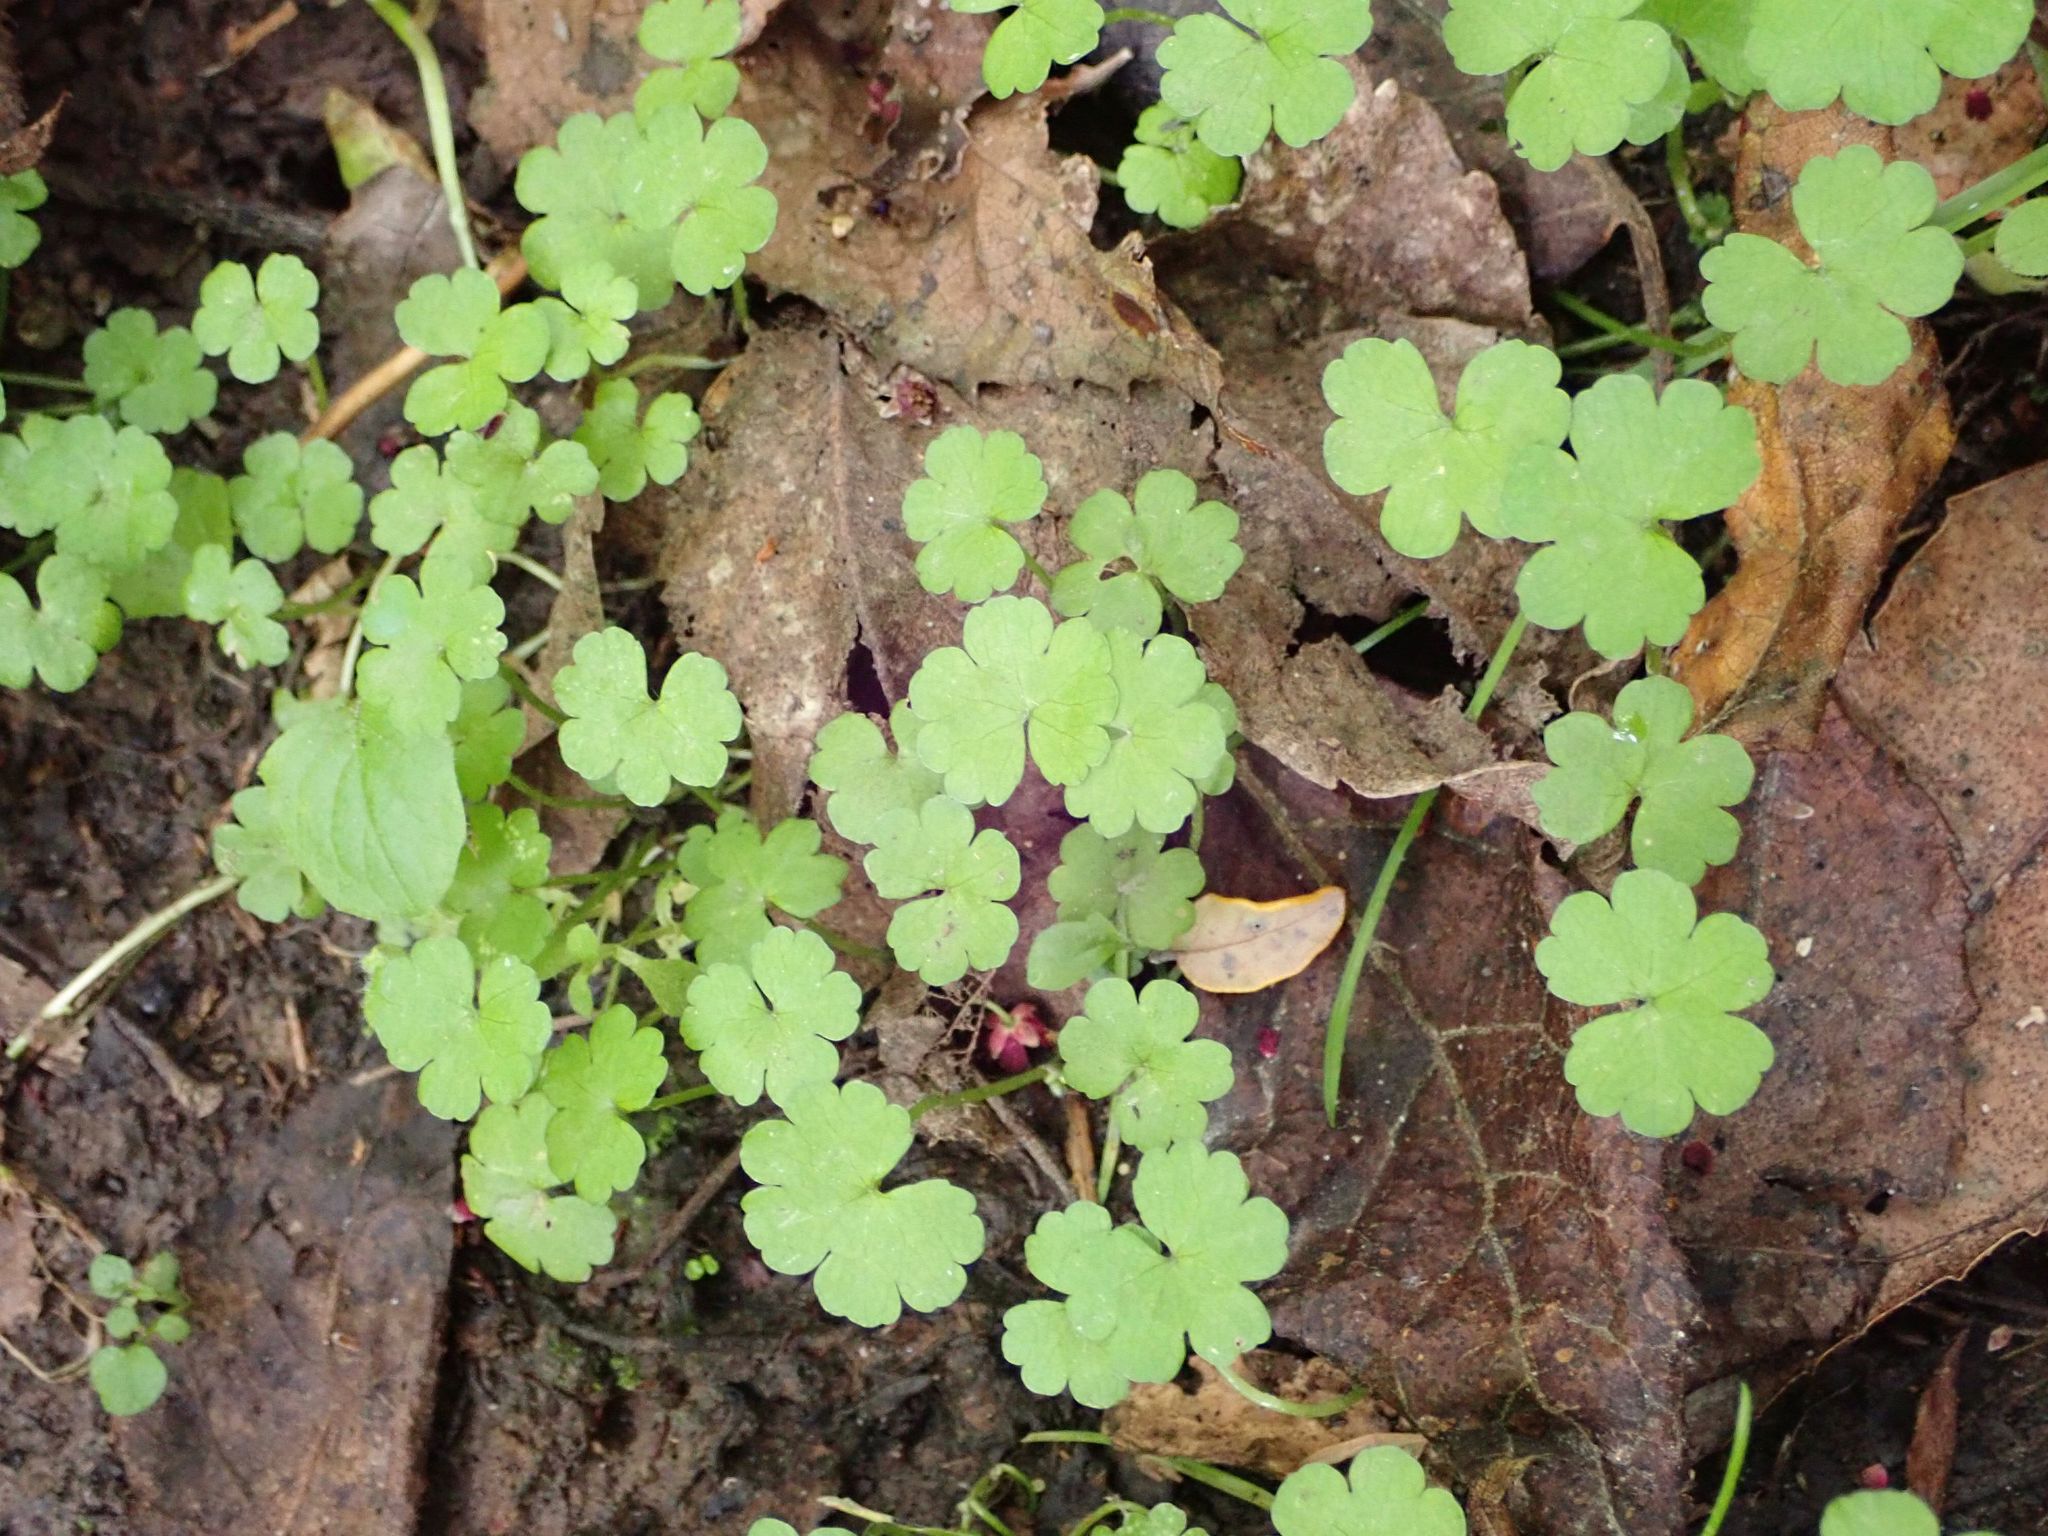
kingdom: Plantae
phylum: Tracheophyta
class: Magnoliopsida
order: Apiales
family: Araliaceae
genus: Hydrocotyle
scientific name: Hydrocotyle heteromeria
